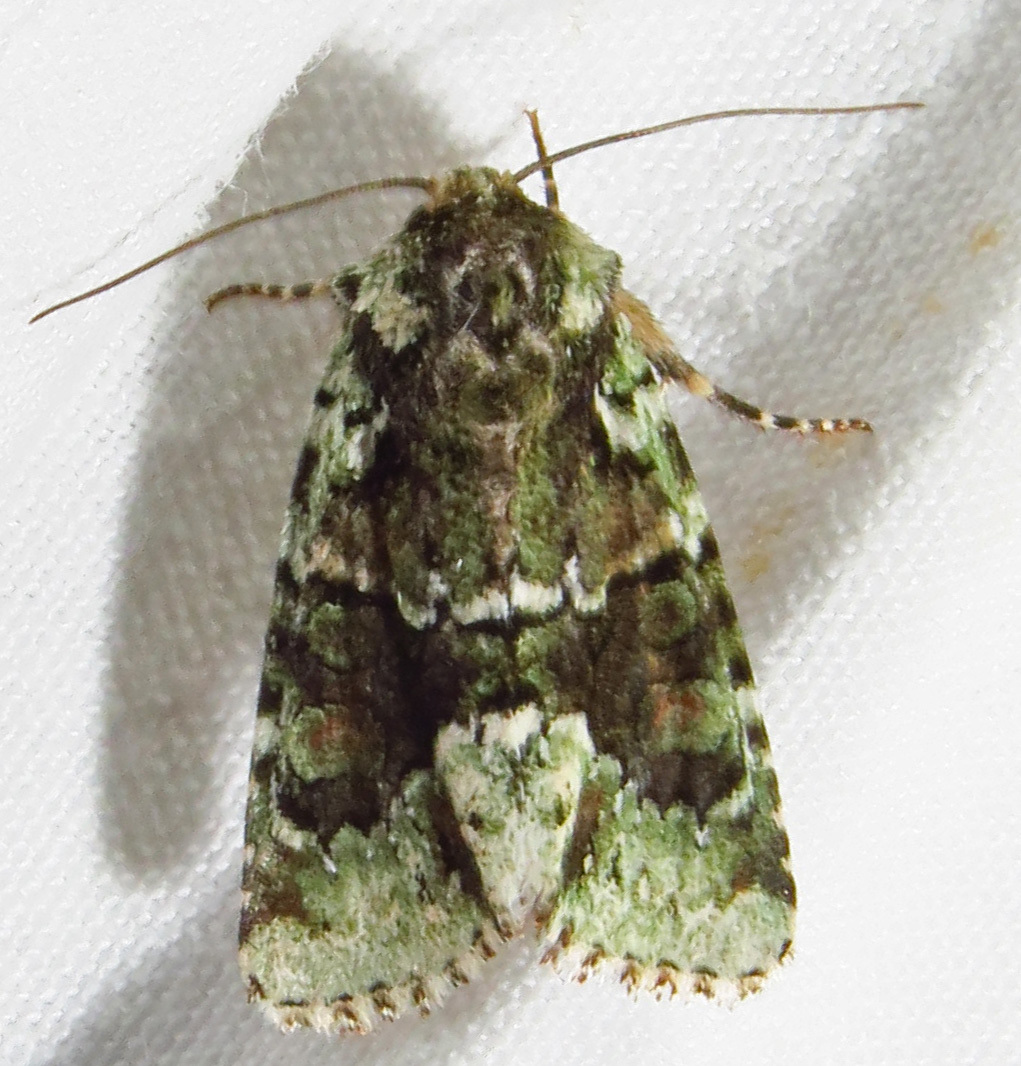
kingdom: Animalia
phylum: Arthropoda
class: Insecta
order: Lepidoptera
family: Noctuidae
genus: Lacinipolia
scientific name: Lacinipolia explicata
